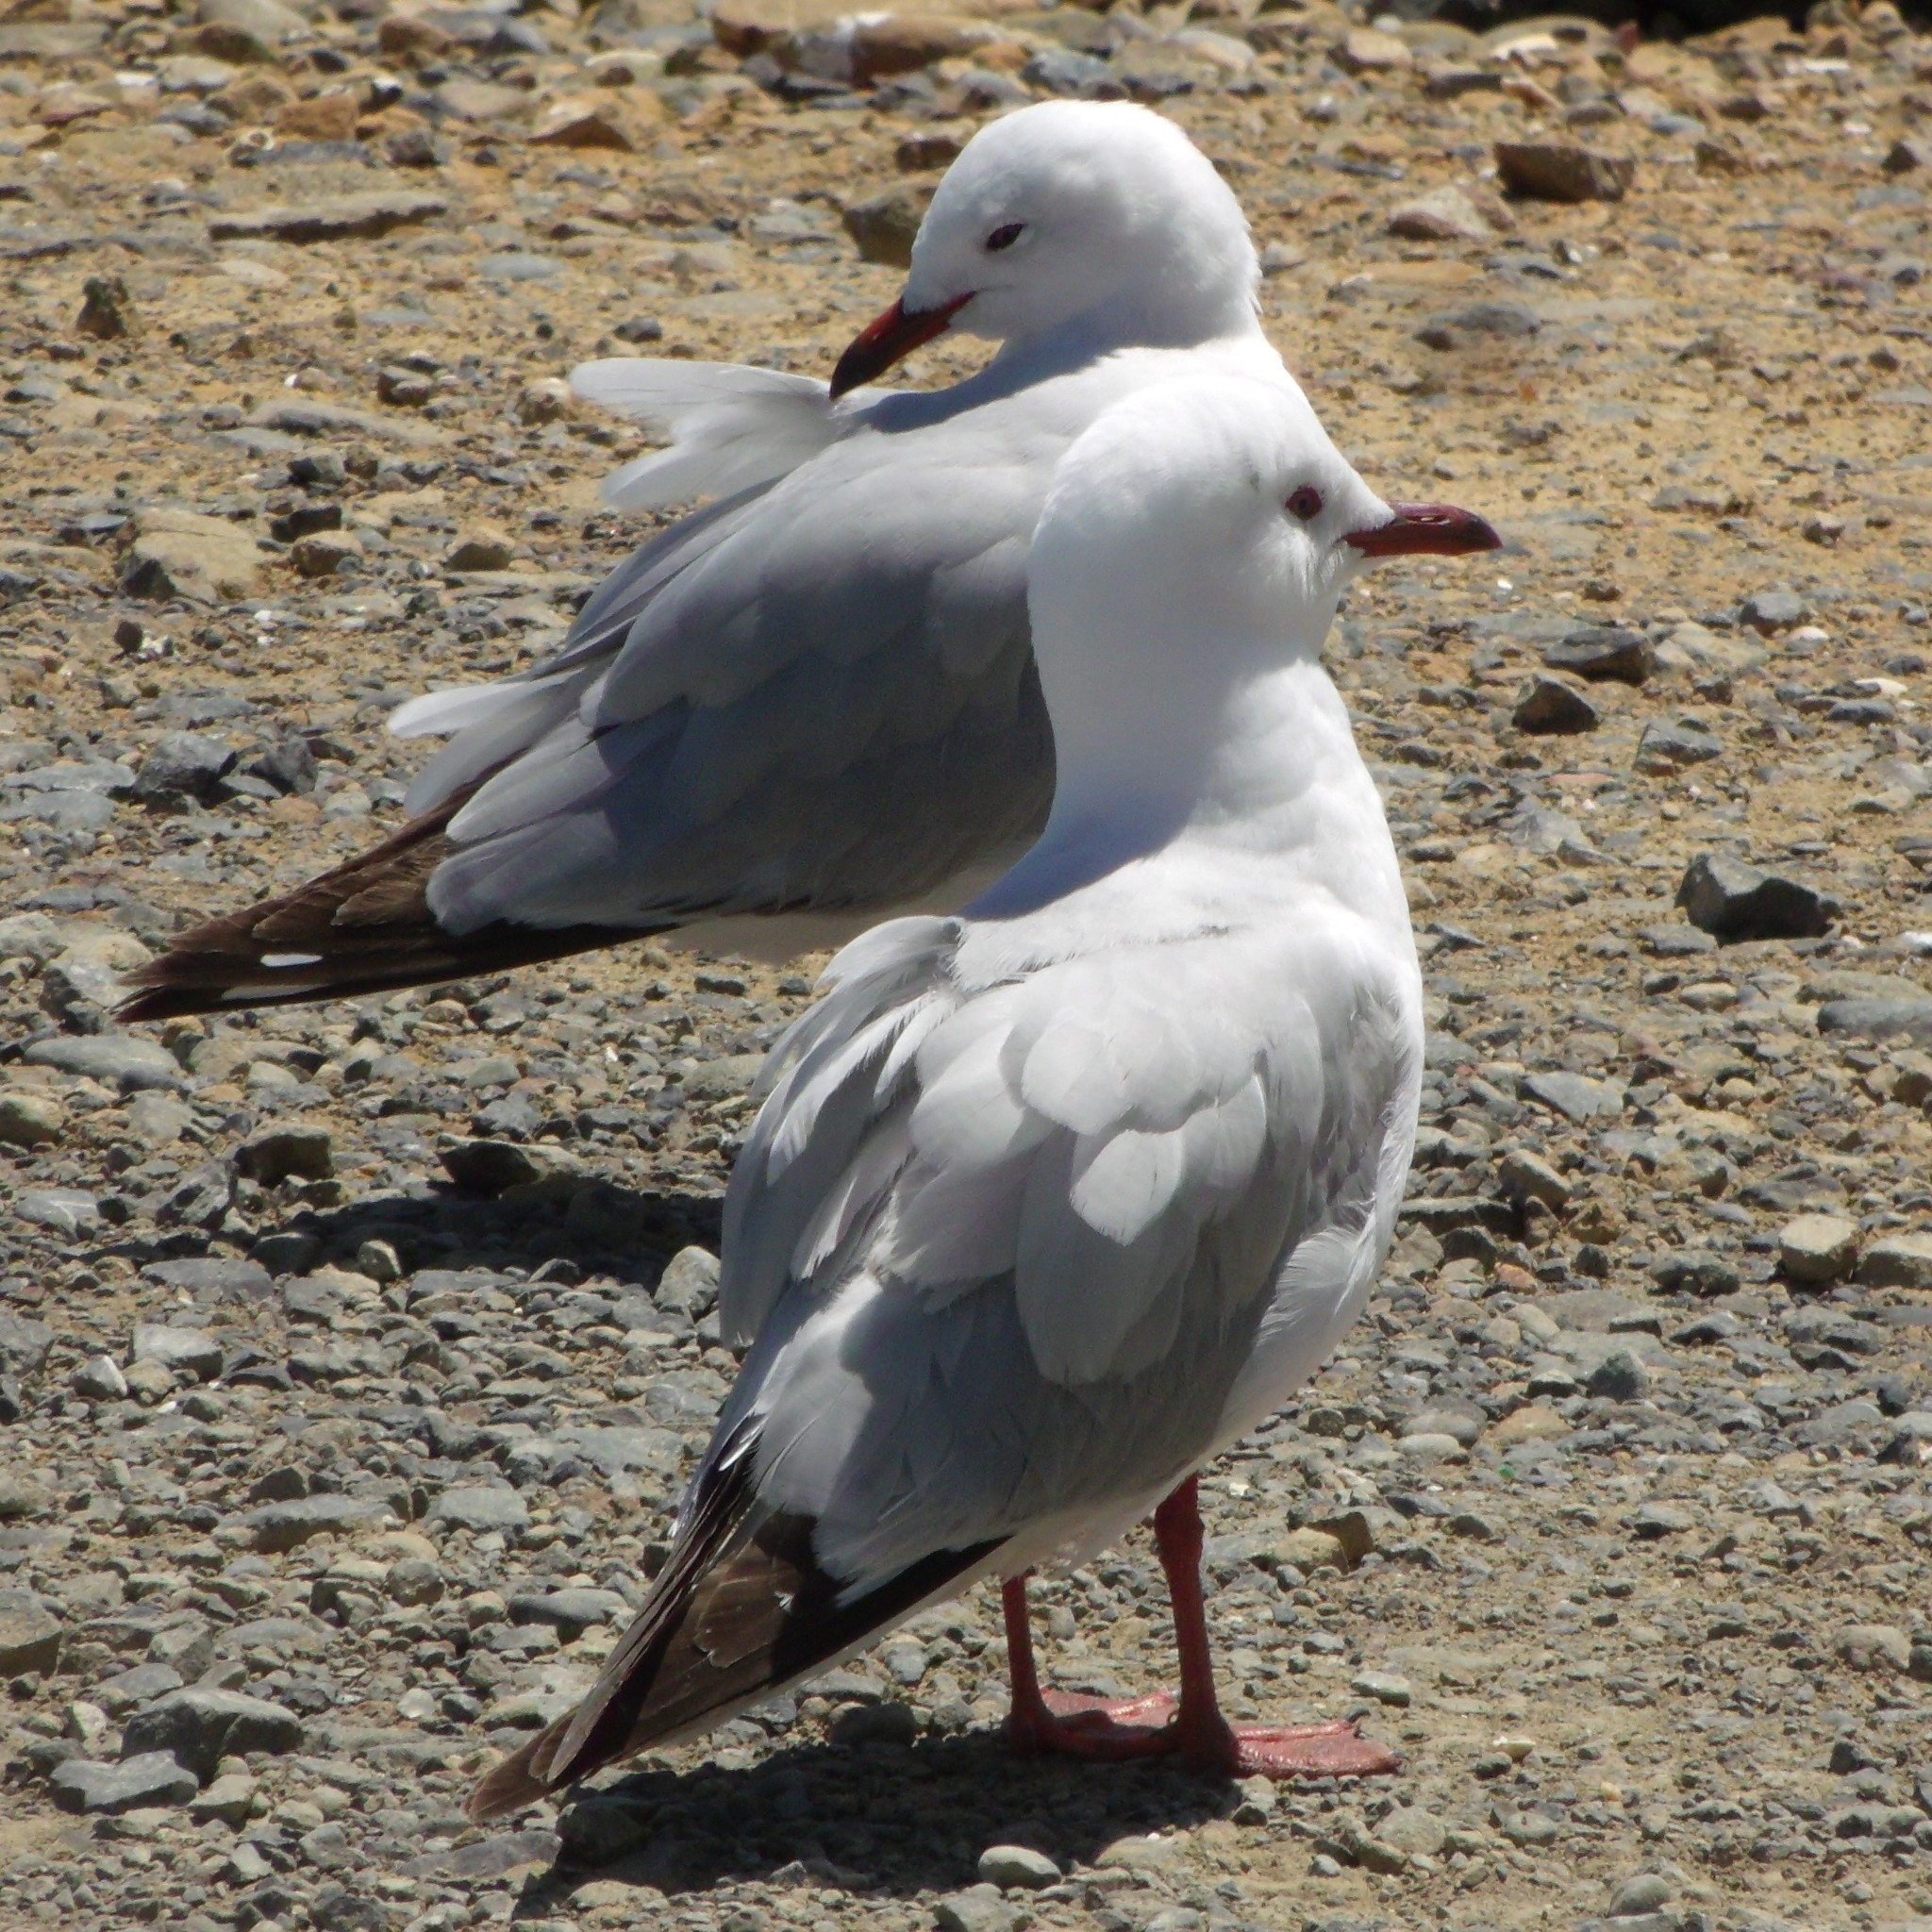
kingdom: Animalia
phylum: Chordata
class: Aves
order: Charadriiformes
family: Laridae
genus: Chroicocephalus
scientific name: Chroicocephalus novaehollandiae
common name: Silver gull
